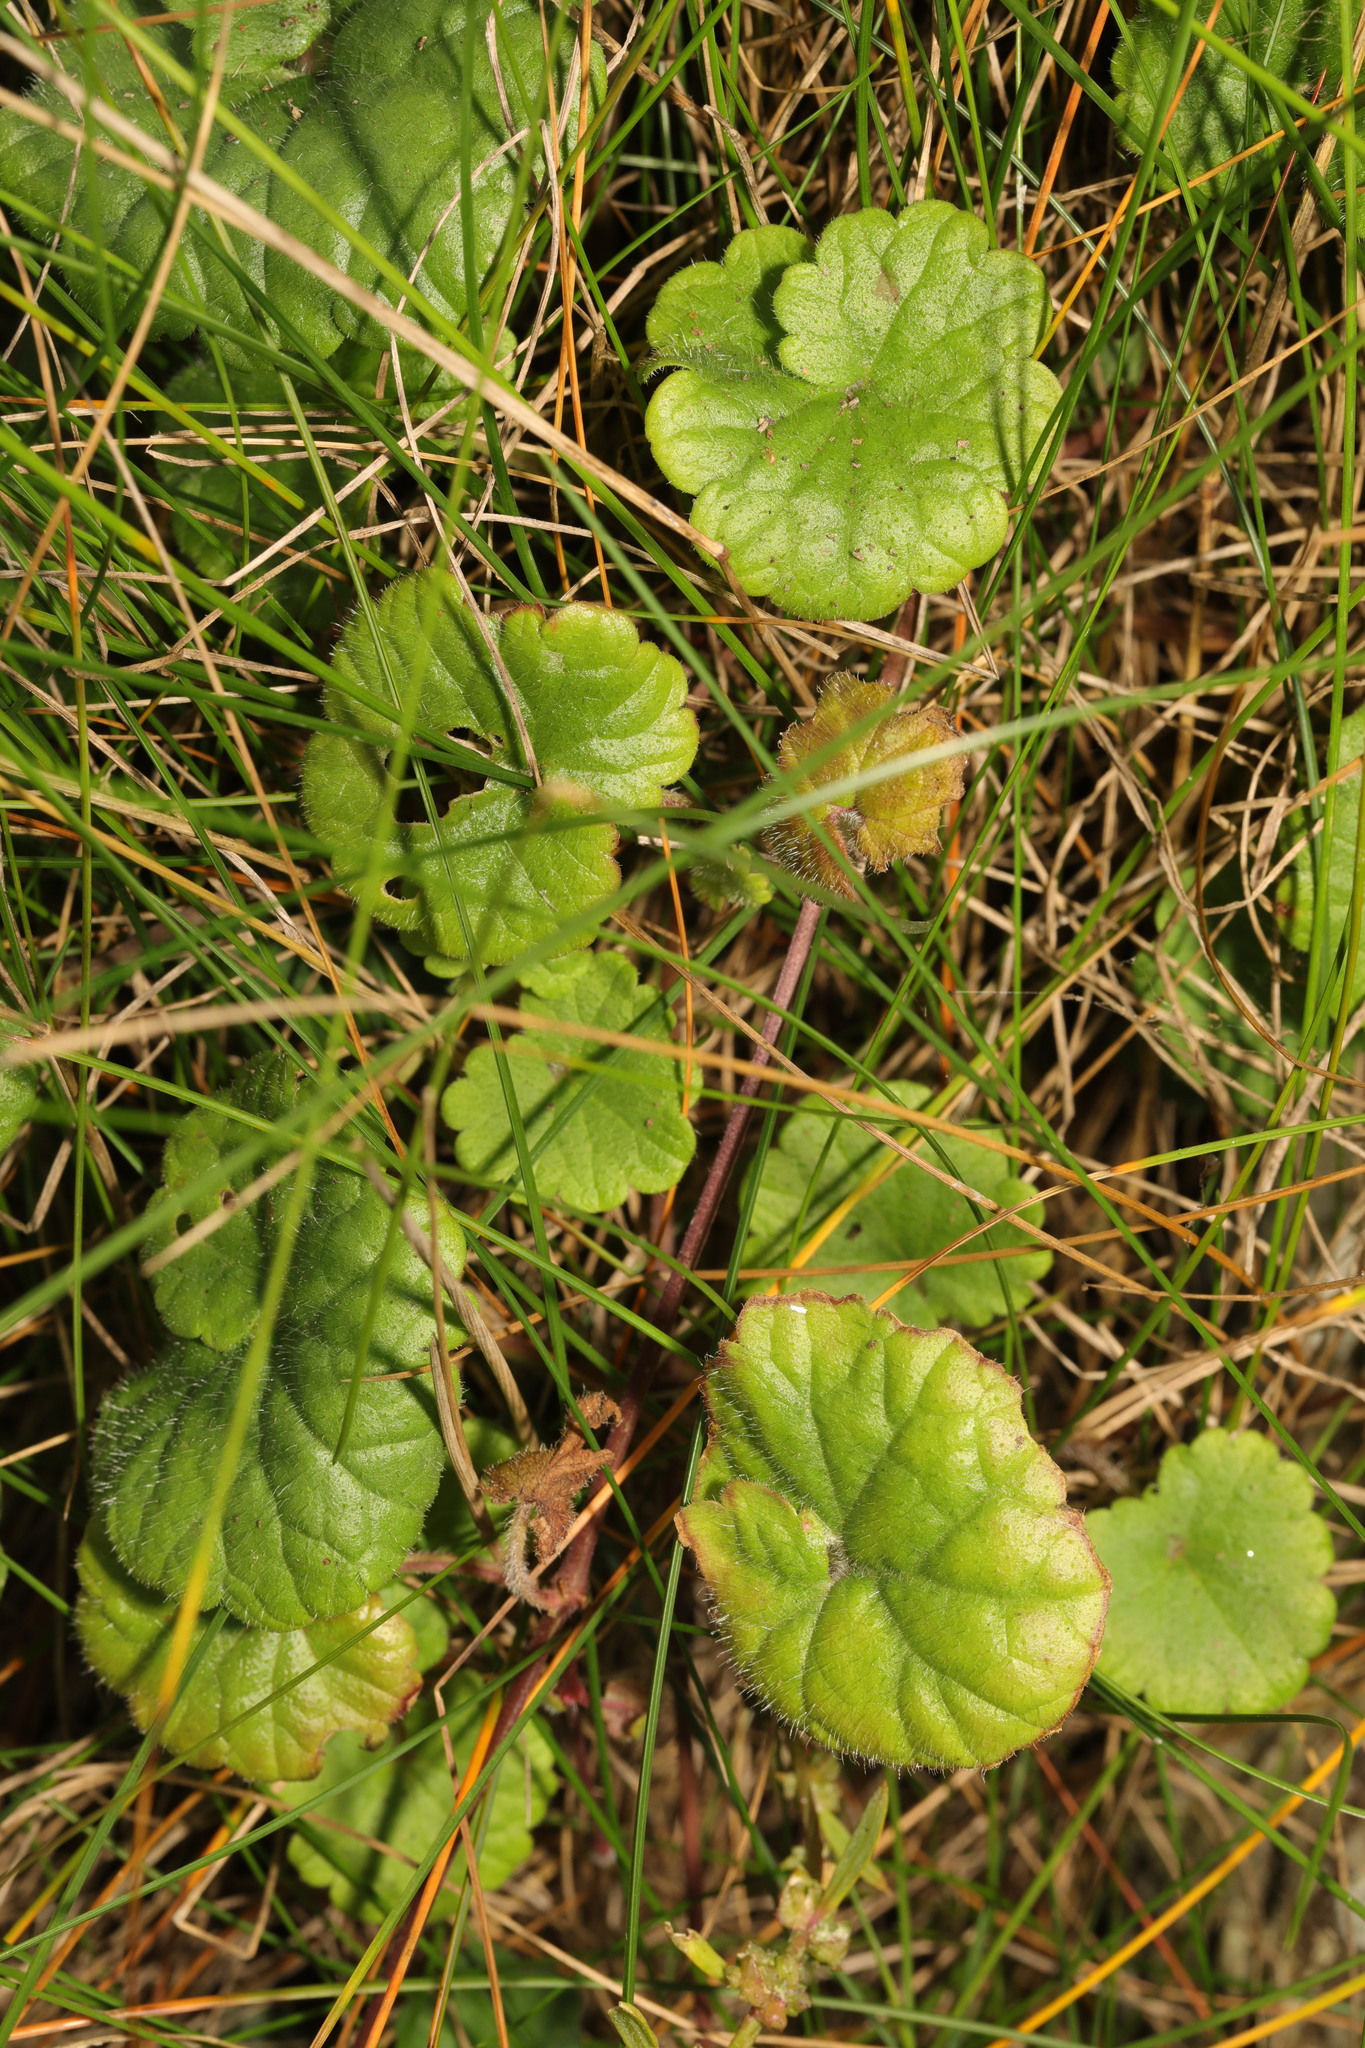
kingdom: Plantae
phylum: Tracheophyta
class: Magnoliopsida
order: Lamiales
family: Lamiaceae
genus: Glechoma
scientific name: Glechoma hederacea
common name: Ground ivy
